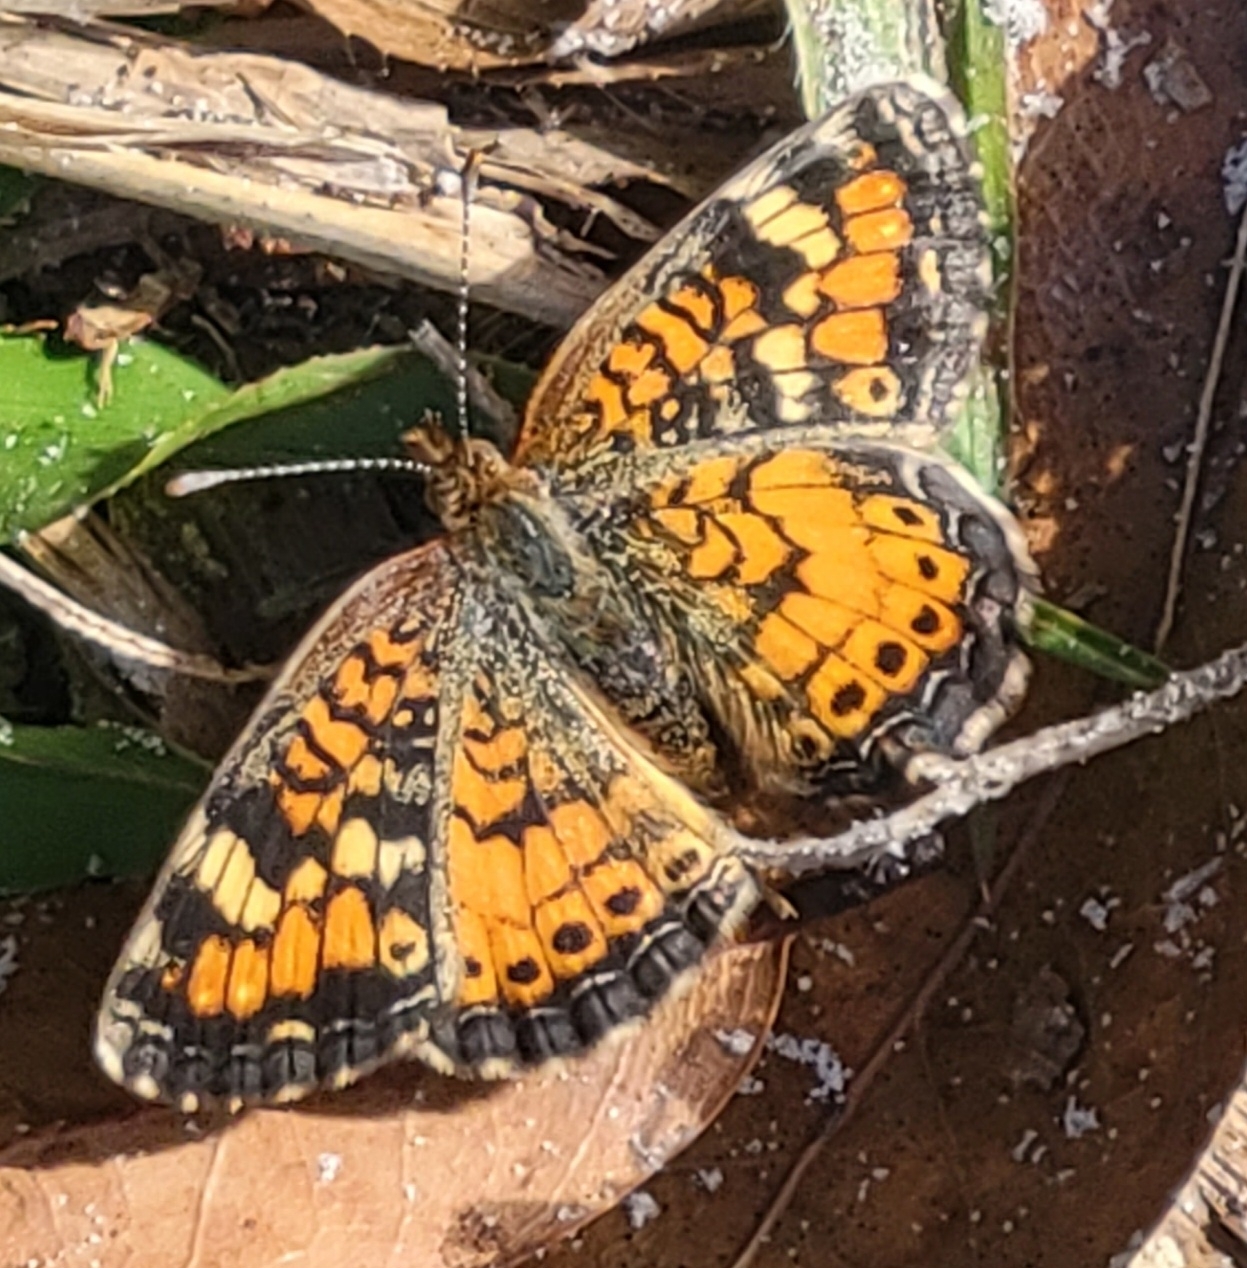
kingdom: Animalia
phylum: Arthropoda
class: Insecta
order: Lepidoptera
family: Nymphalidae
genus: Phyciodes
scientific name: Phyciodes phaon
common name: Phaon crescent
